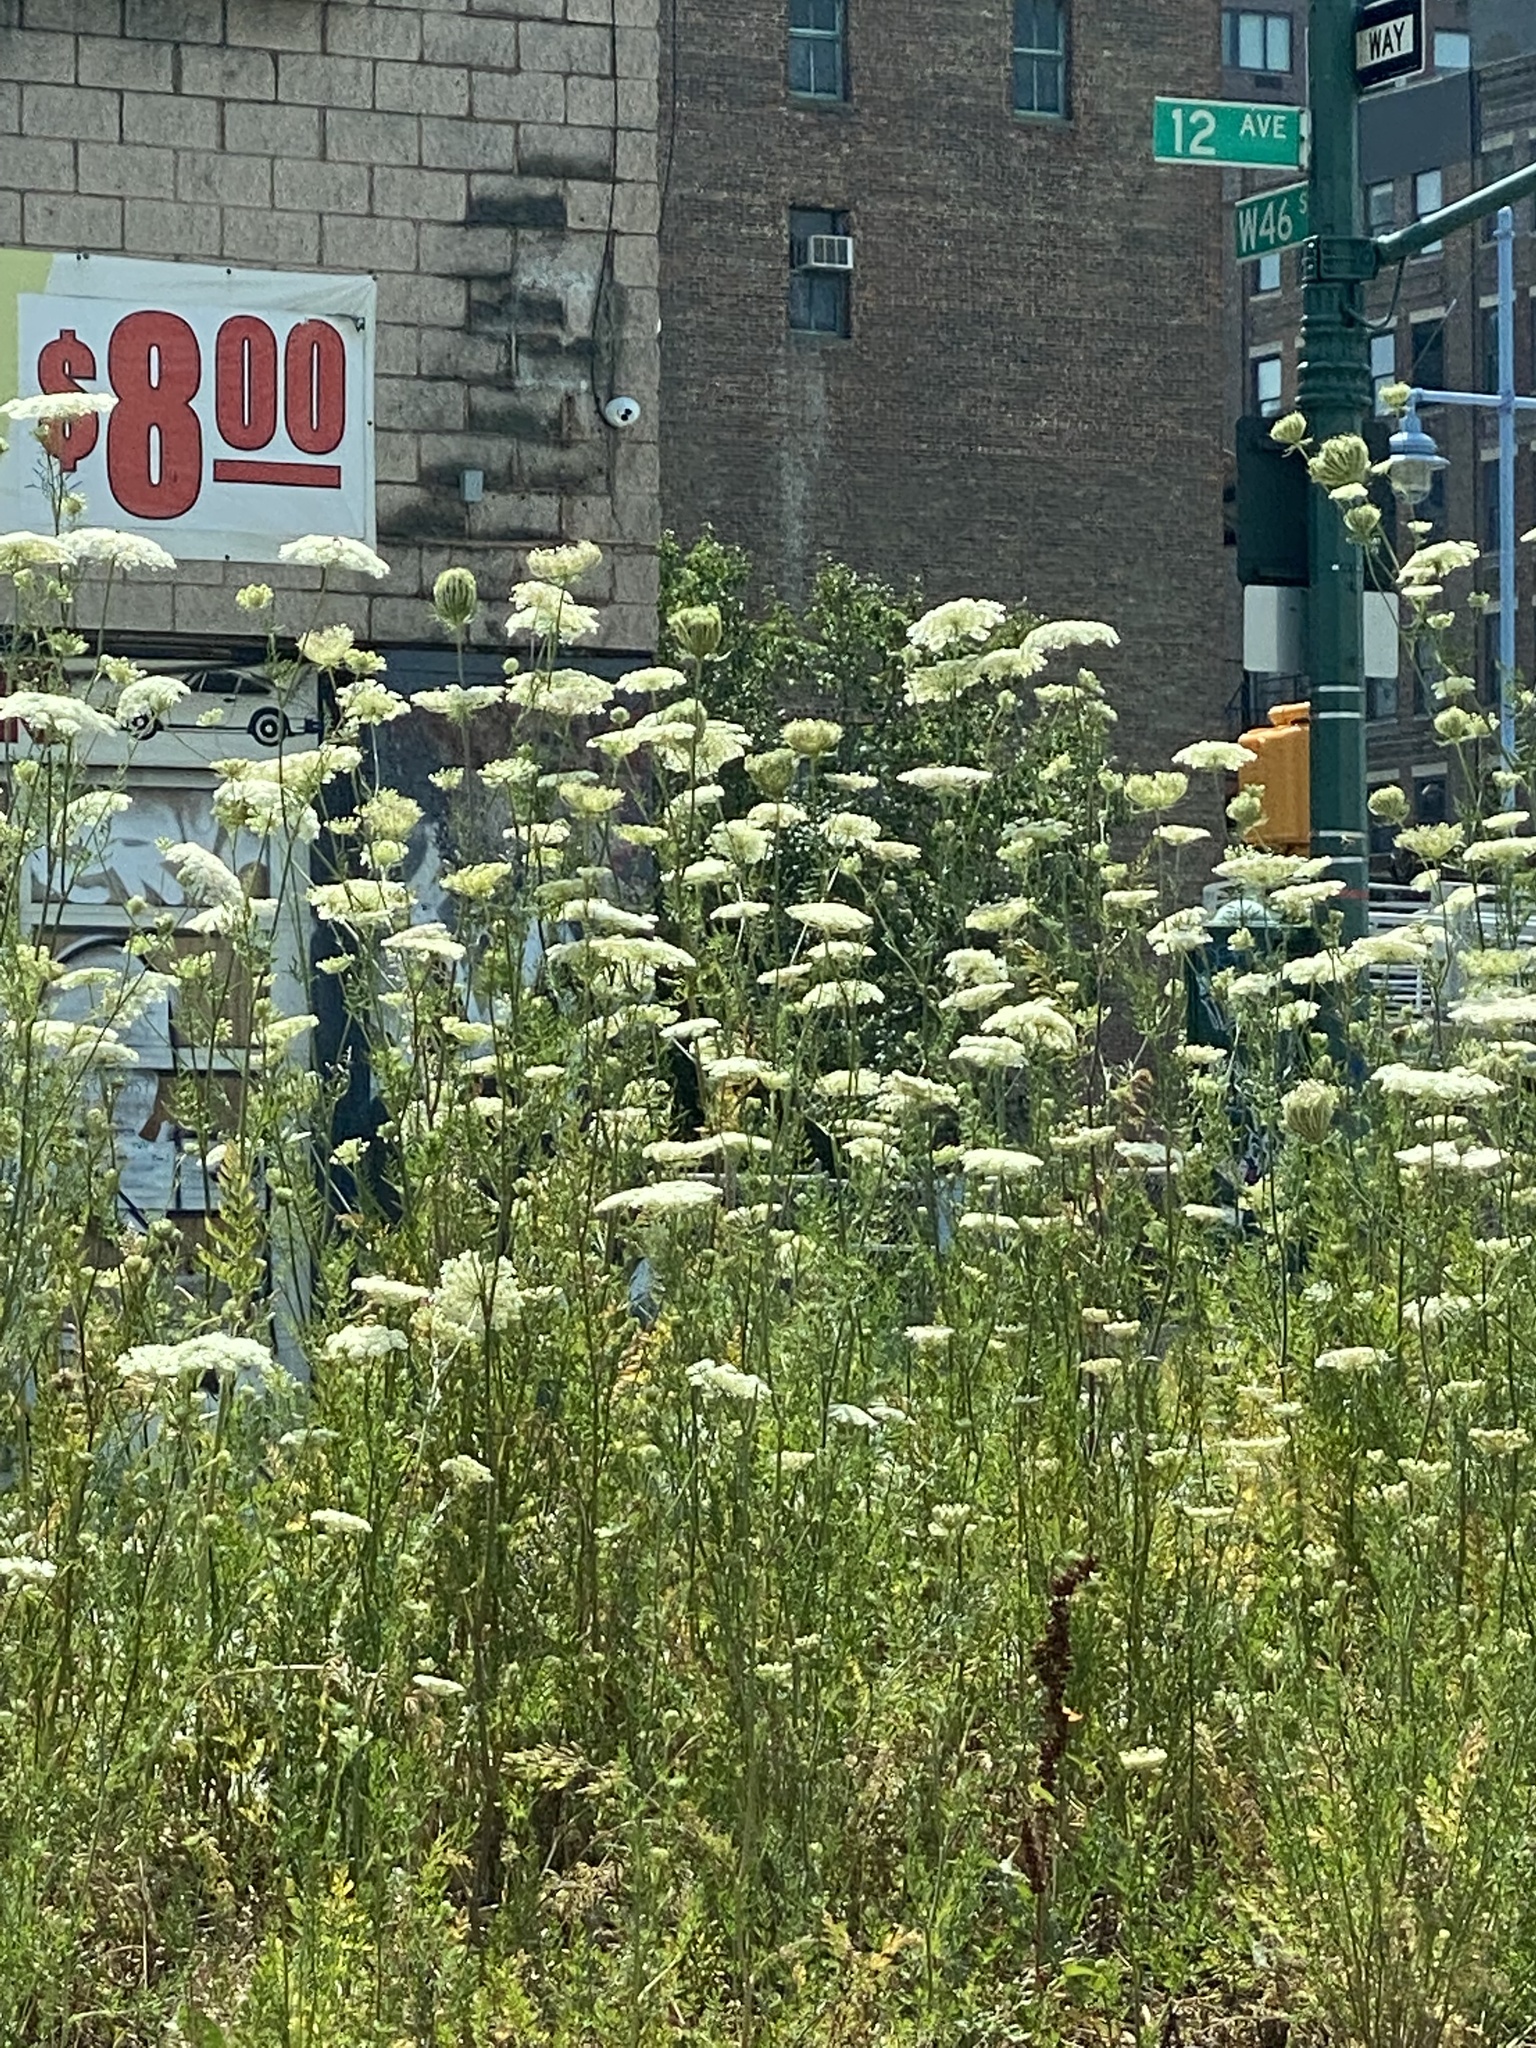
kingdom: Plantae
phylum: Tracheophyta
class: Magnoliopsida
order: Apiales
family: Apiaceae
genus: Daucus
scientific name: Daucus carota
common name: Wild carrot
